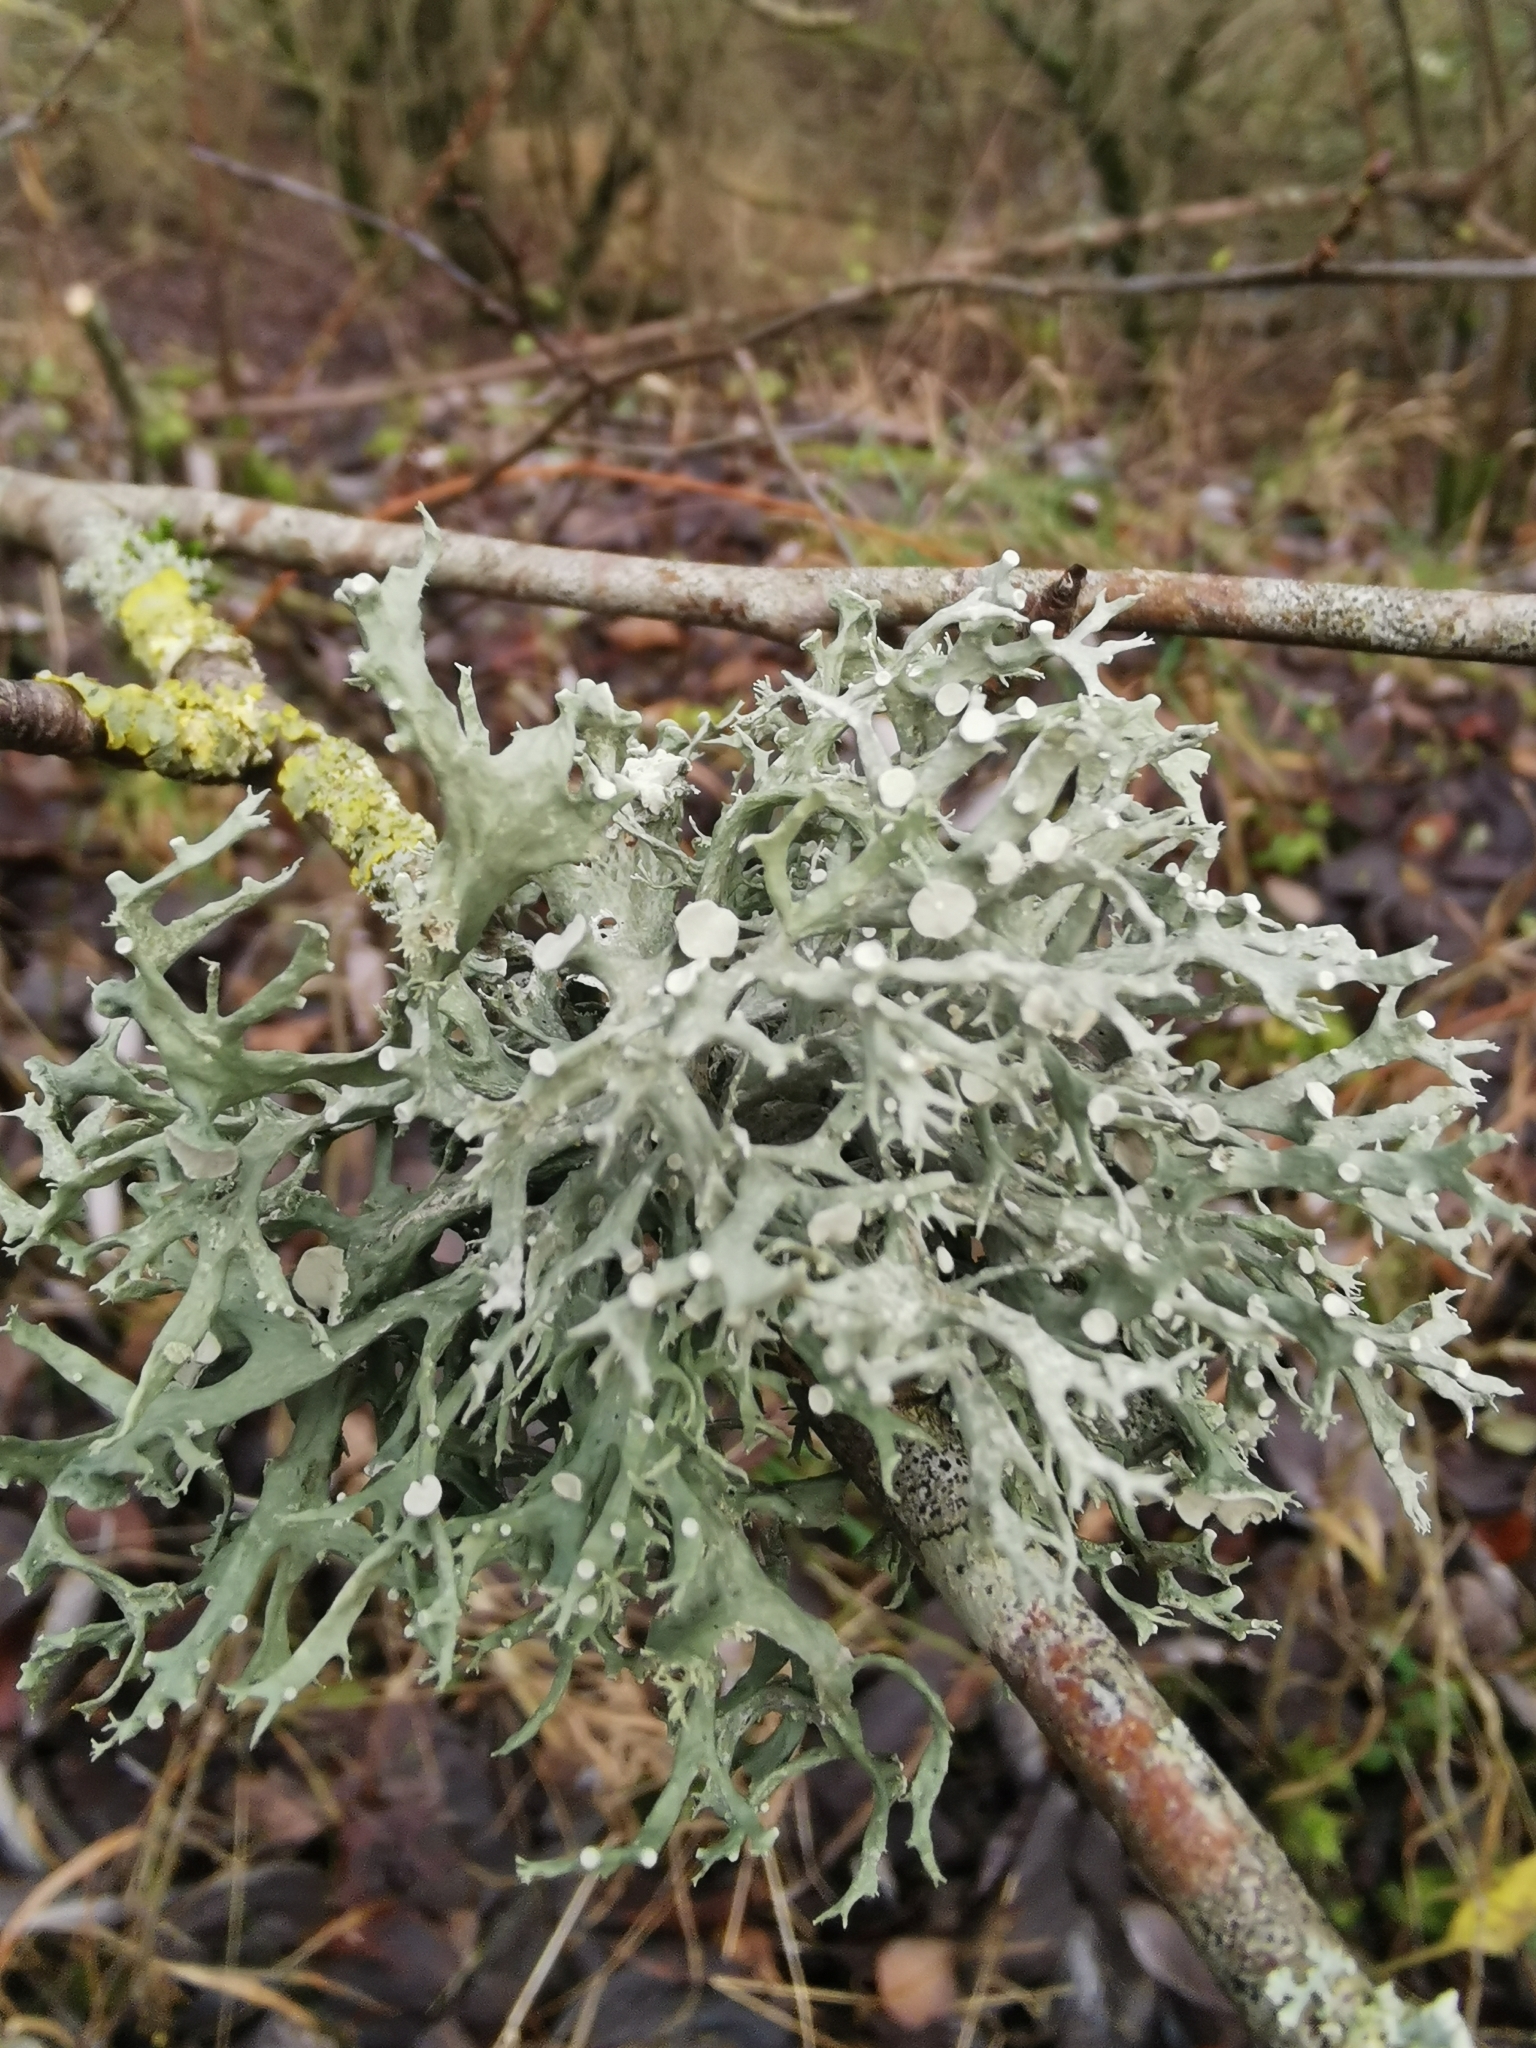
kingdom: Fungi
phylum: Ascomycota
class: Lecanoromycetes
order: Lecanorales
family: Ramalinaceae
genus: Ramalina
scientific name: Ramalina fastigiata
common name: Dotted ribbon lichen
